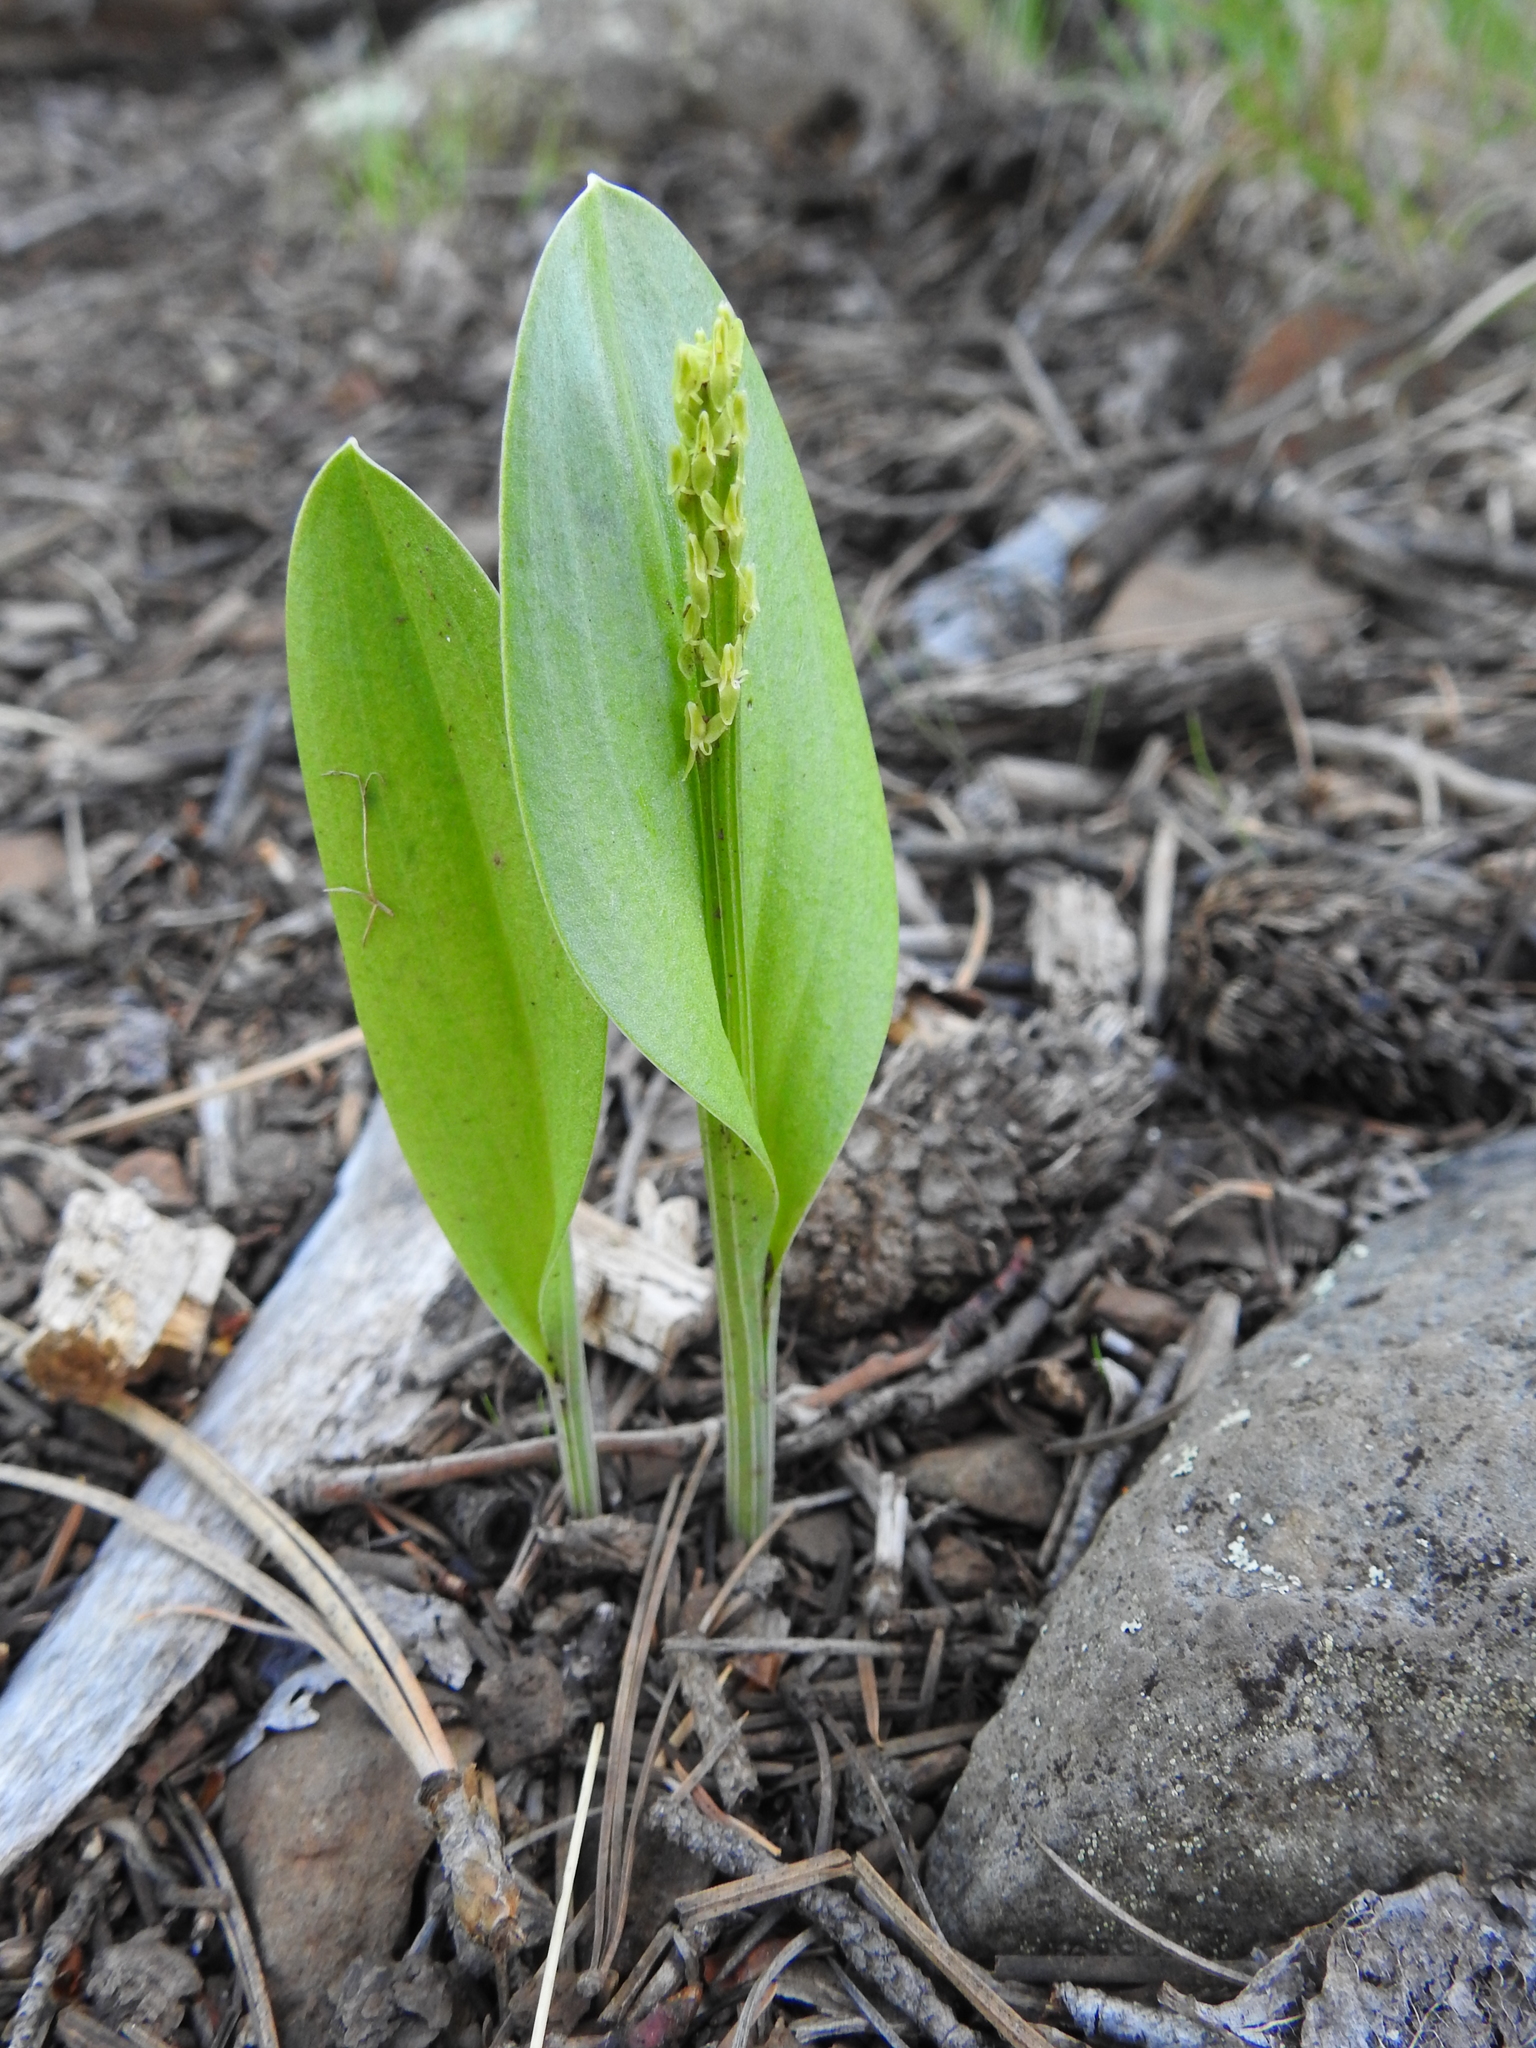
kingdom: Plantae
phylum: Tracheophyta
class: Liliopsida
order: Asparagales
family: Orchidaceae
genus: Malaxis
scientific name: Malaxis macrostachya
